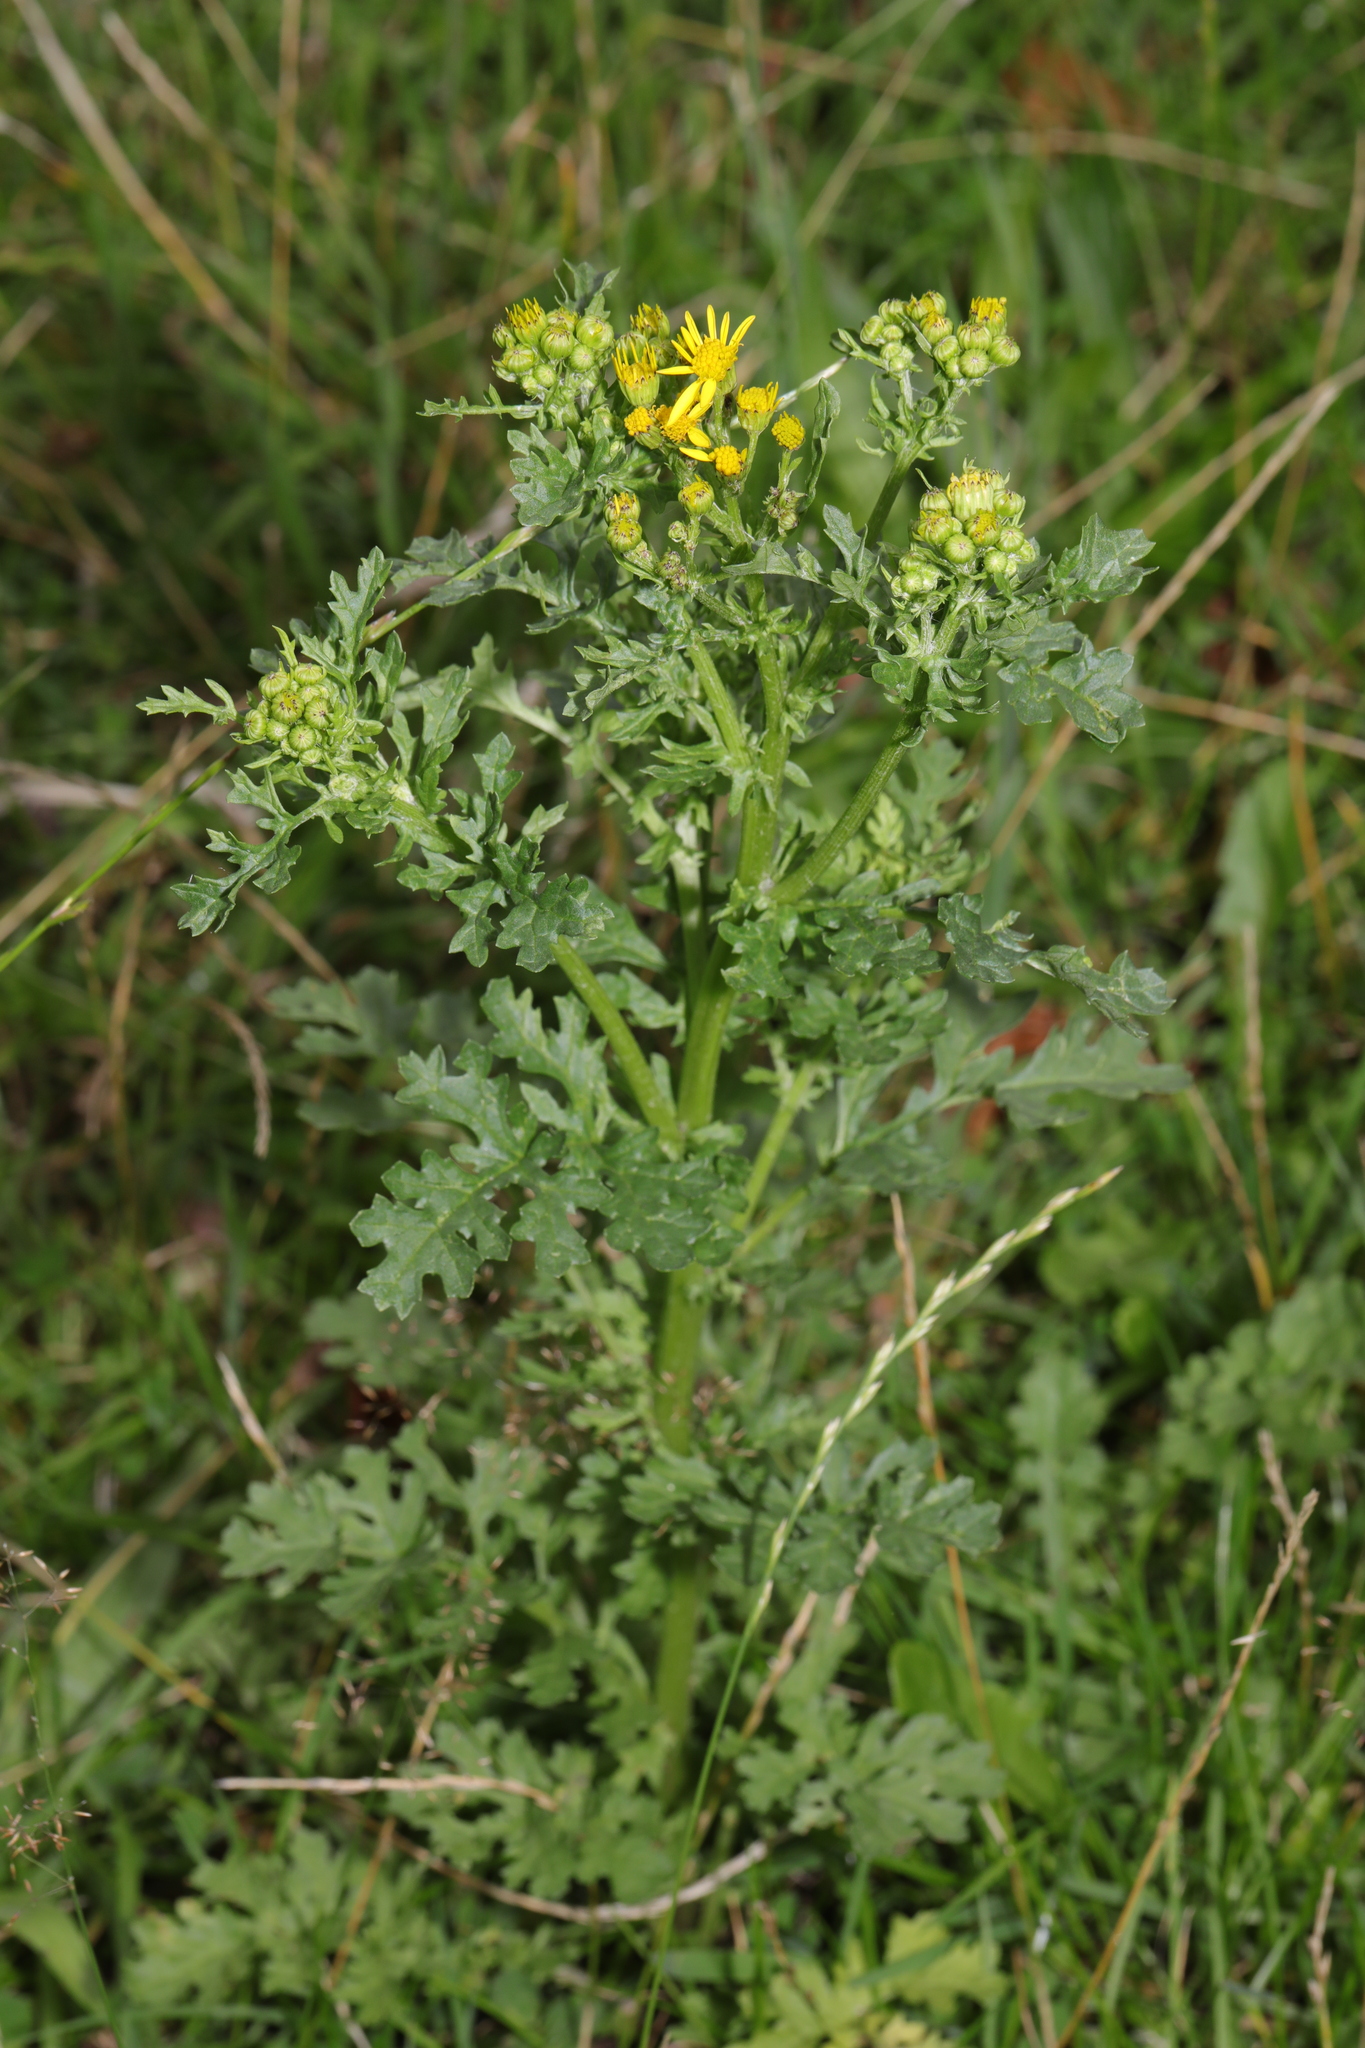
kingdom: Plantae
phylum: Tracheophyta
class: Magnoliopsida
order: Asterales
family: Asteraceae
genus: Jacobaea
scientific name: Jacobaea vulgaris
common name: Stinking willie
